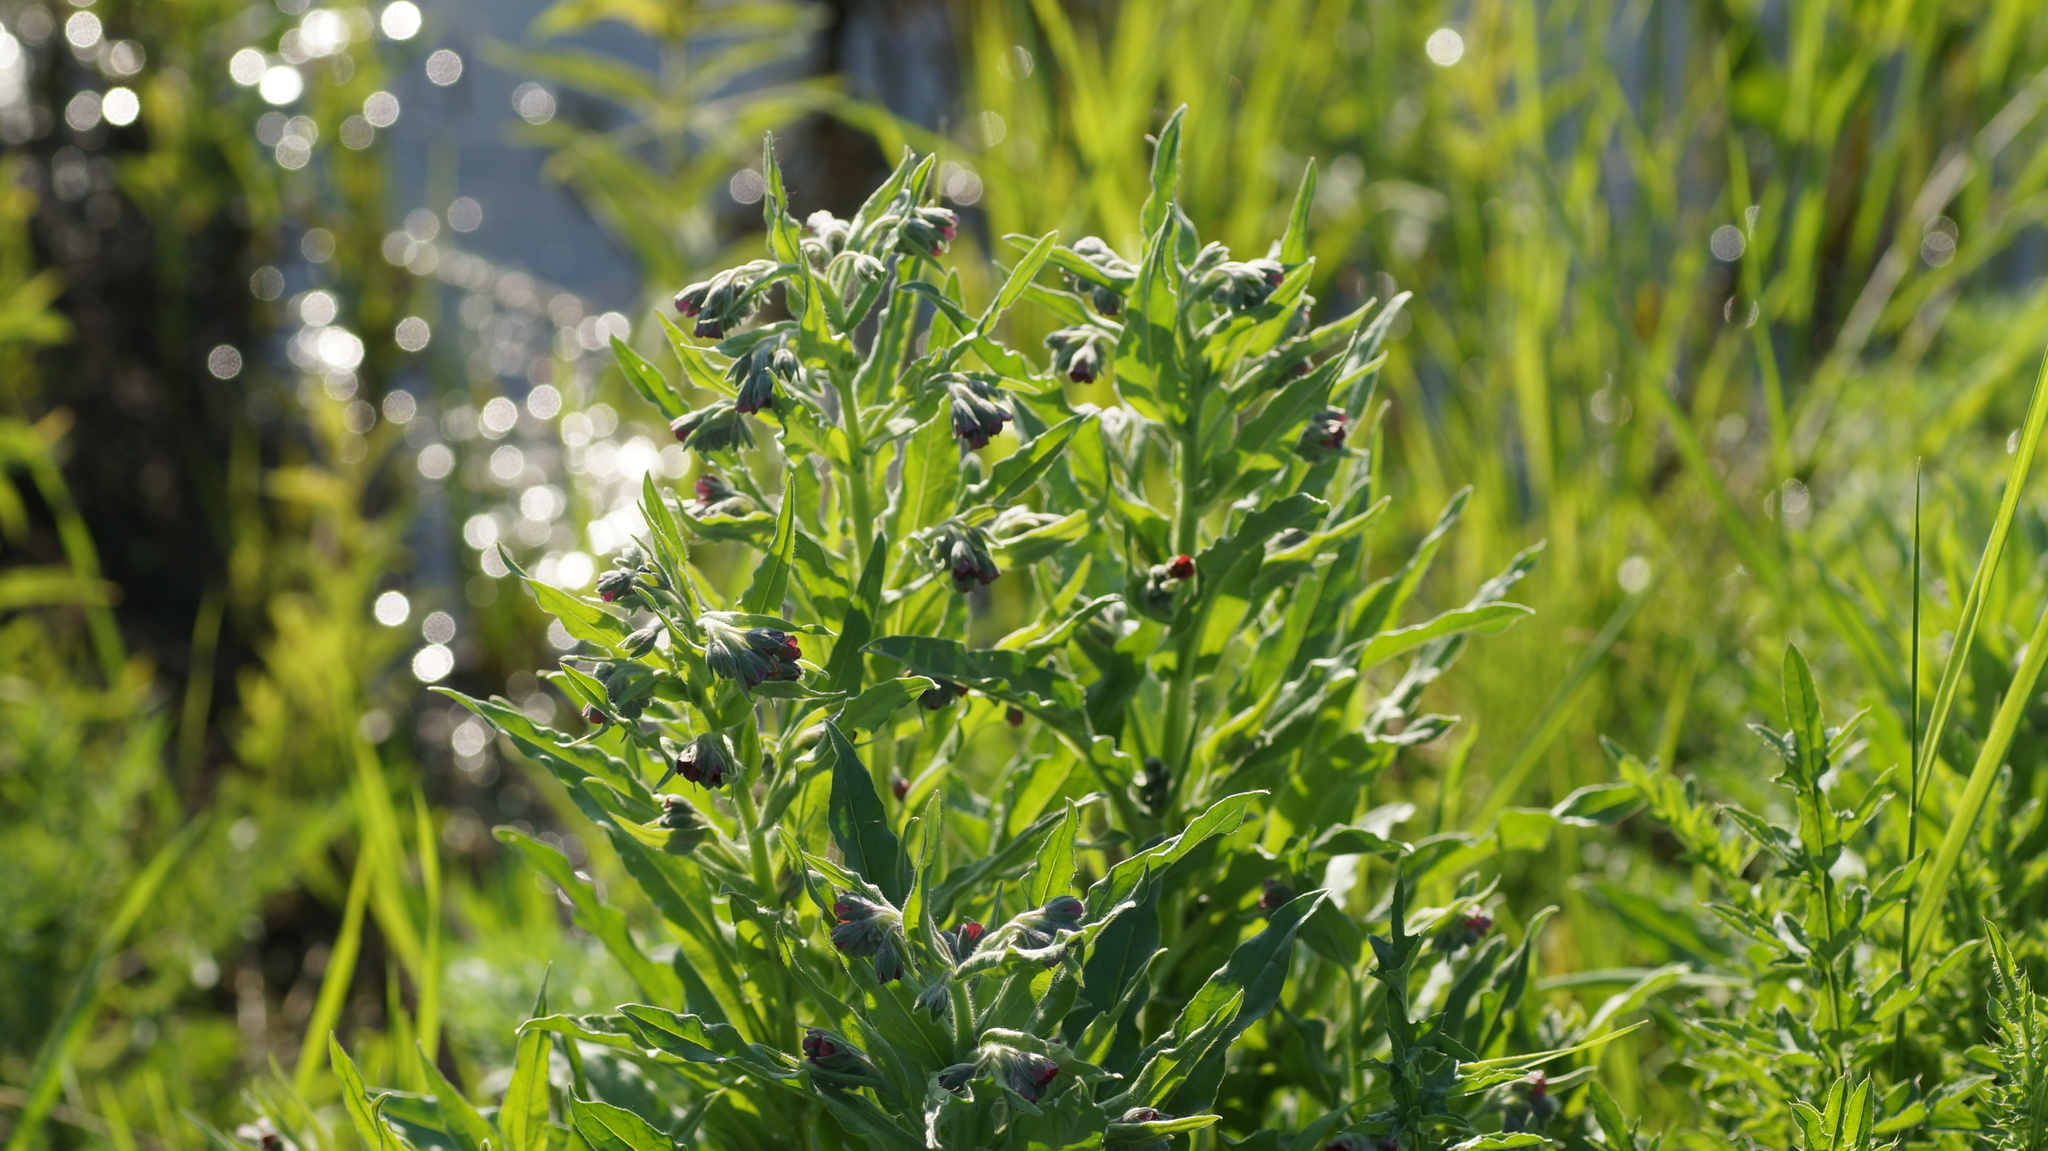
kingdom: Plantae
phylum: Tracheophyta
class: Magnoliopsida
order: Boraginales
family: Boraginaceae
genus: Cynoglossum
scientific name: Cynoglossum officinale
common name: Hound's-tongue
